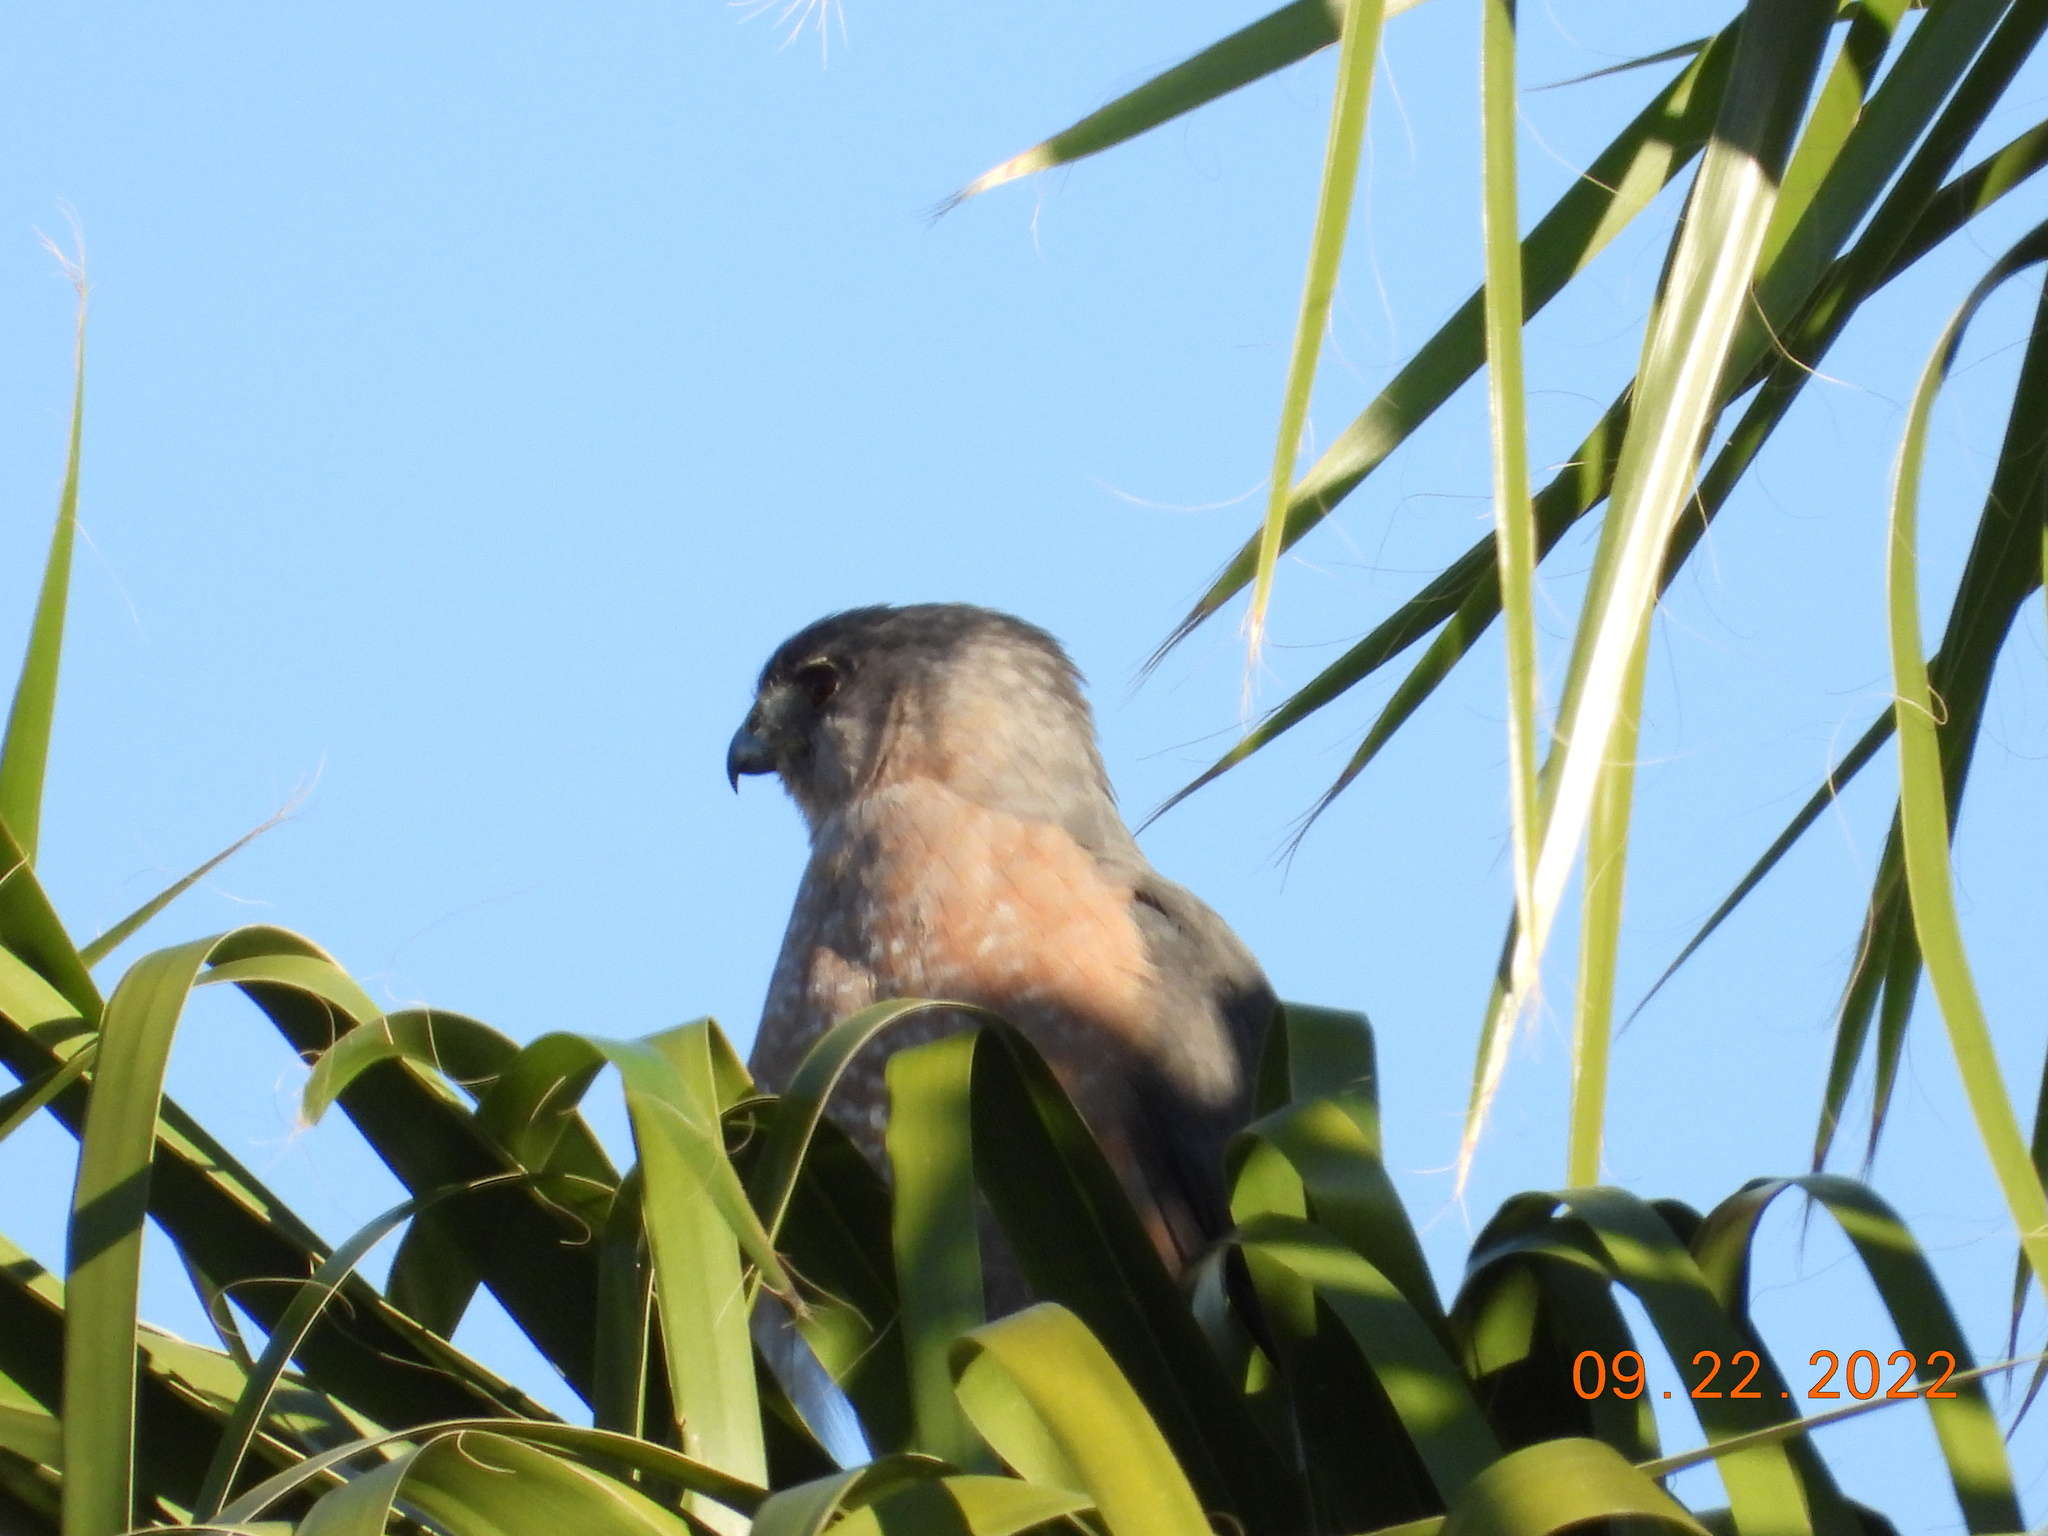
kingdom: Animalia
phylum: Chordata
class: Aves
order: Accipitriformes
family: Accipitridae
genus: Accipiter
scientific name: Accipiter cooperii
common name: Cooper's hawk
